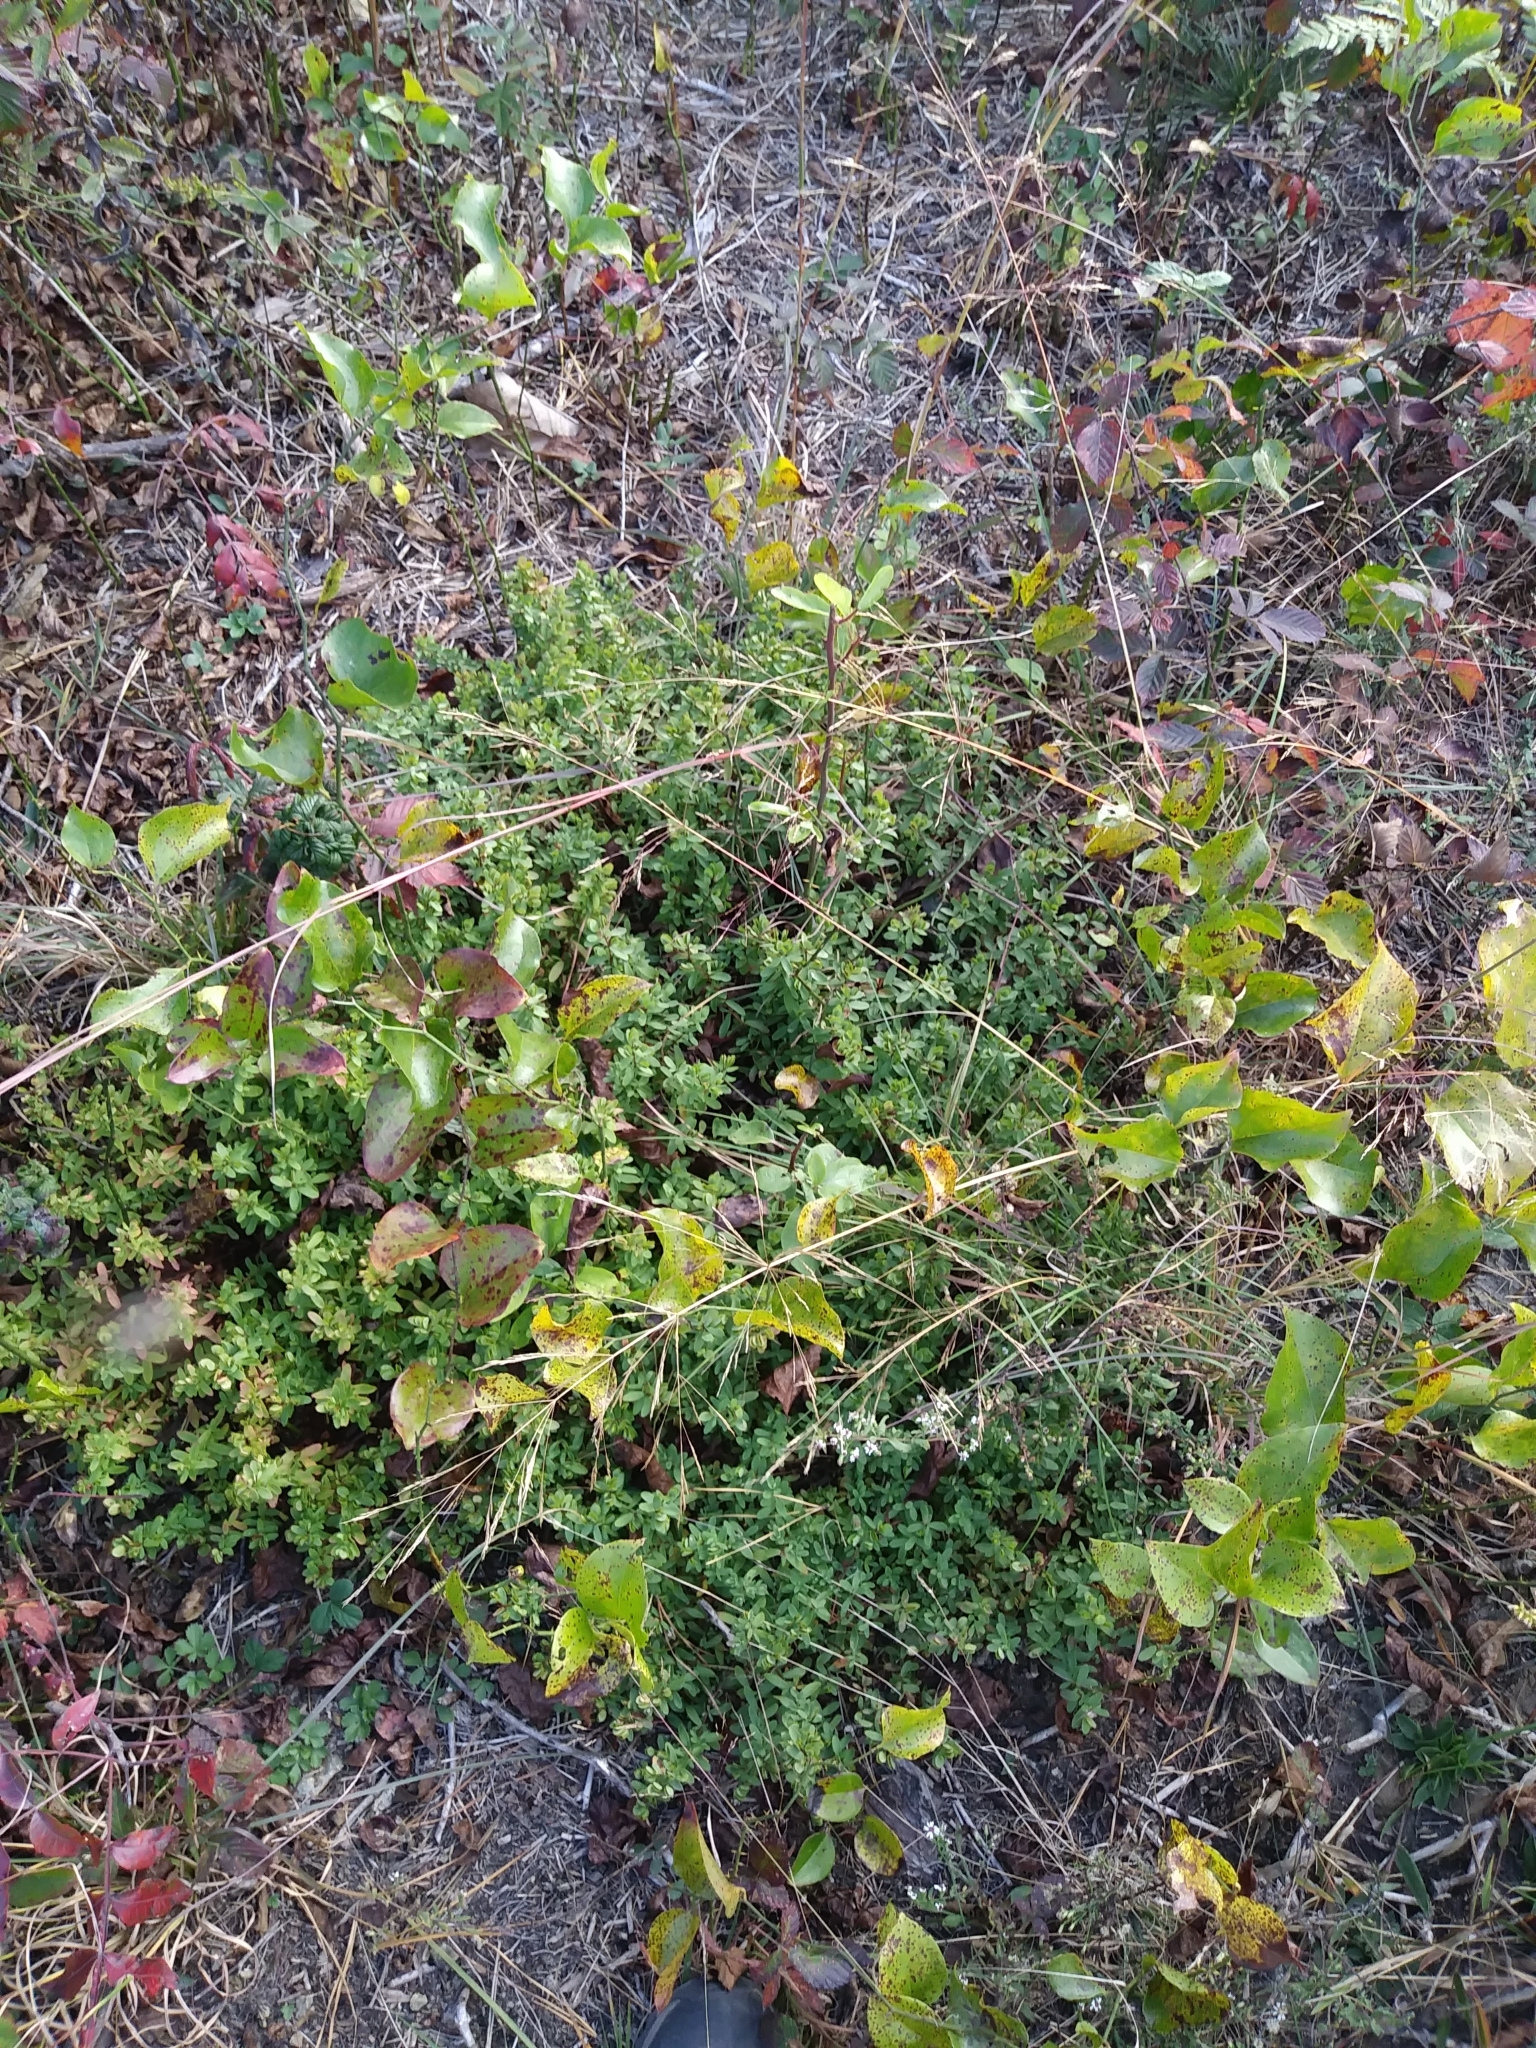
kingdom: Plantae
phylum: Tracheophyta
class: Magnoliopsida
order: Malpighiales
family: Hypericaceae
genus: Hypericum
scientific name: Hypericum hypericoides
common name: St. andrew's cross
